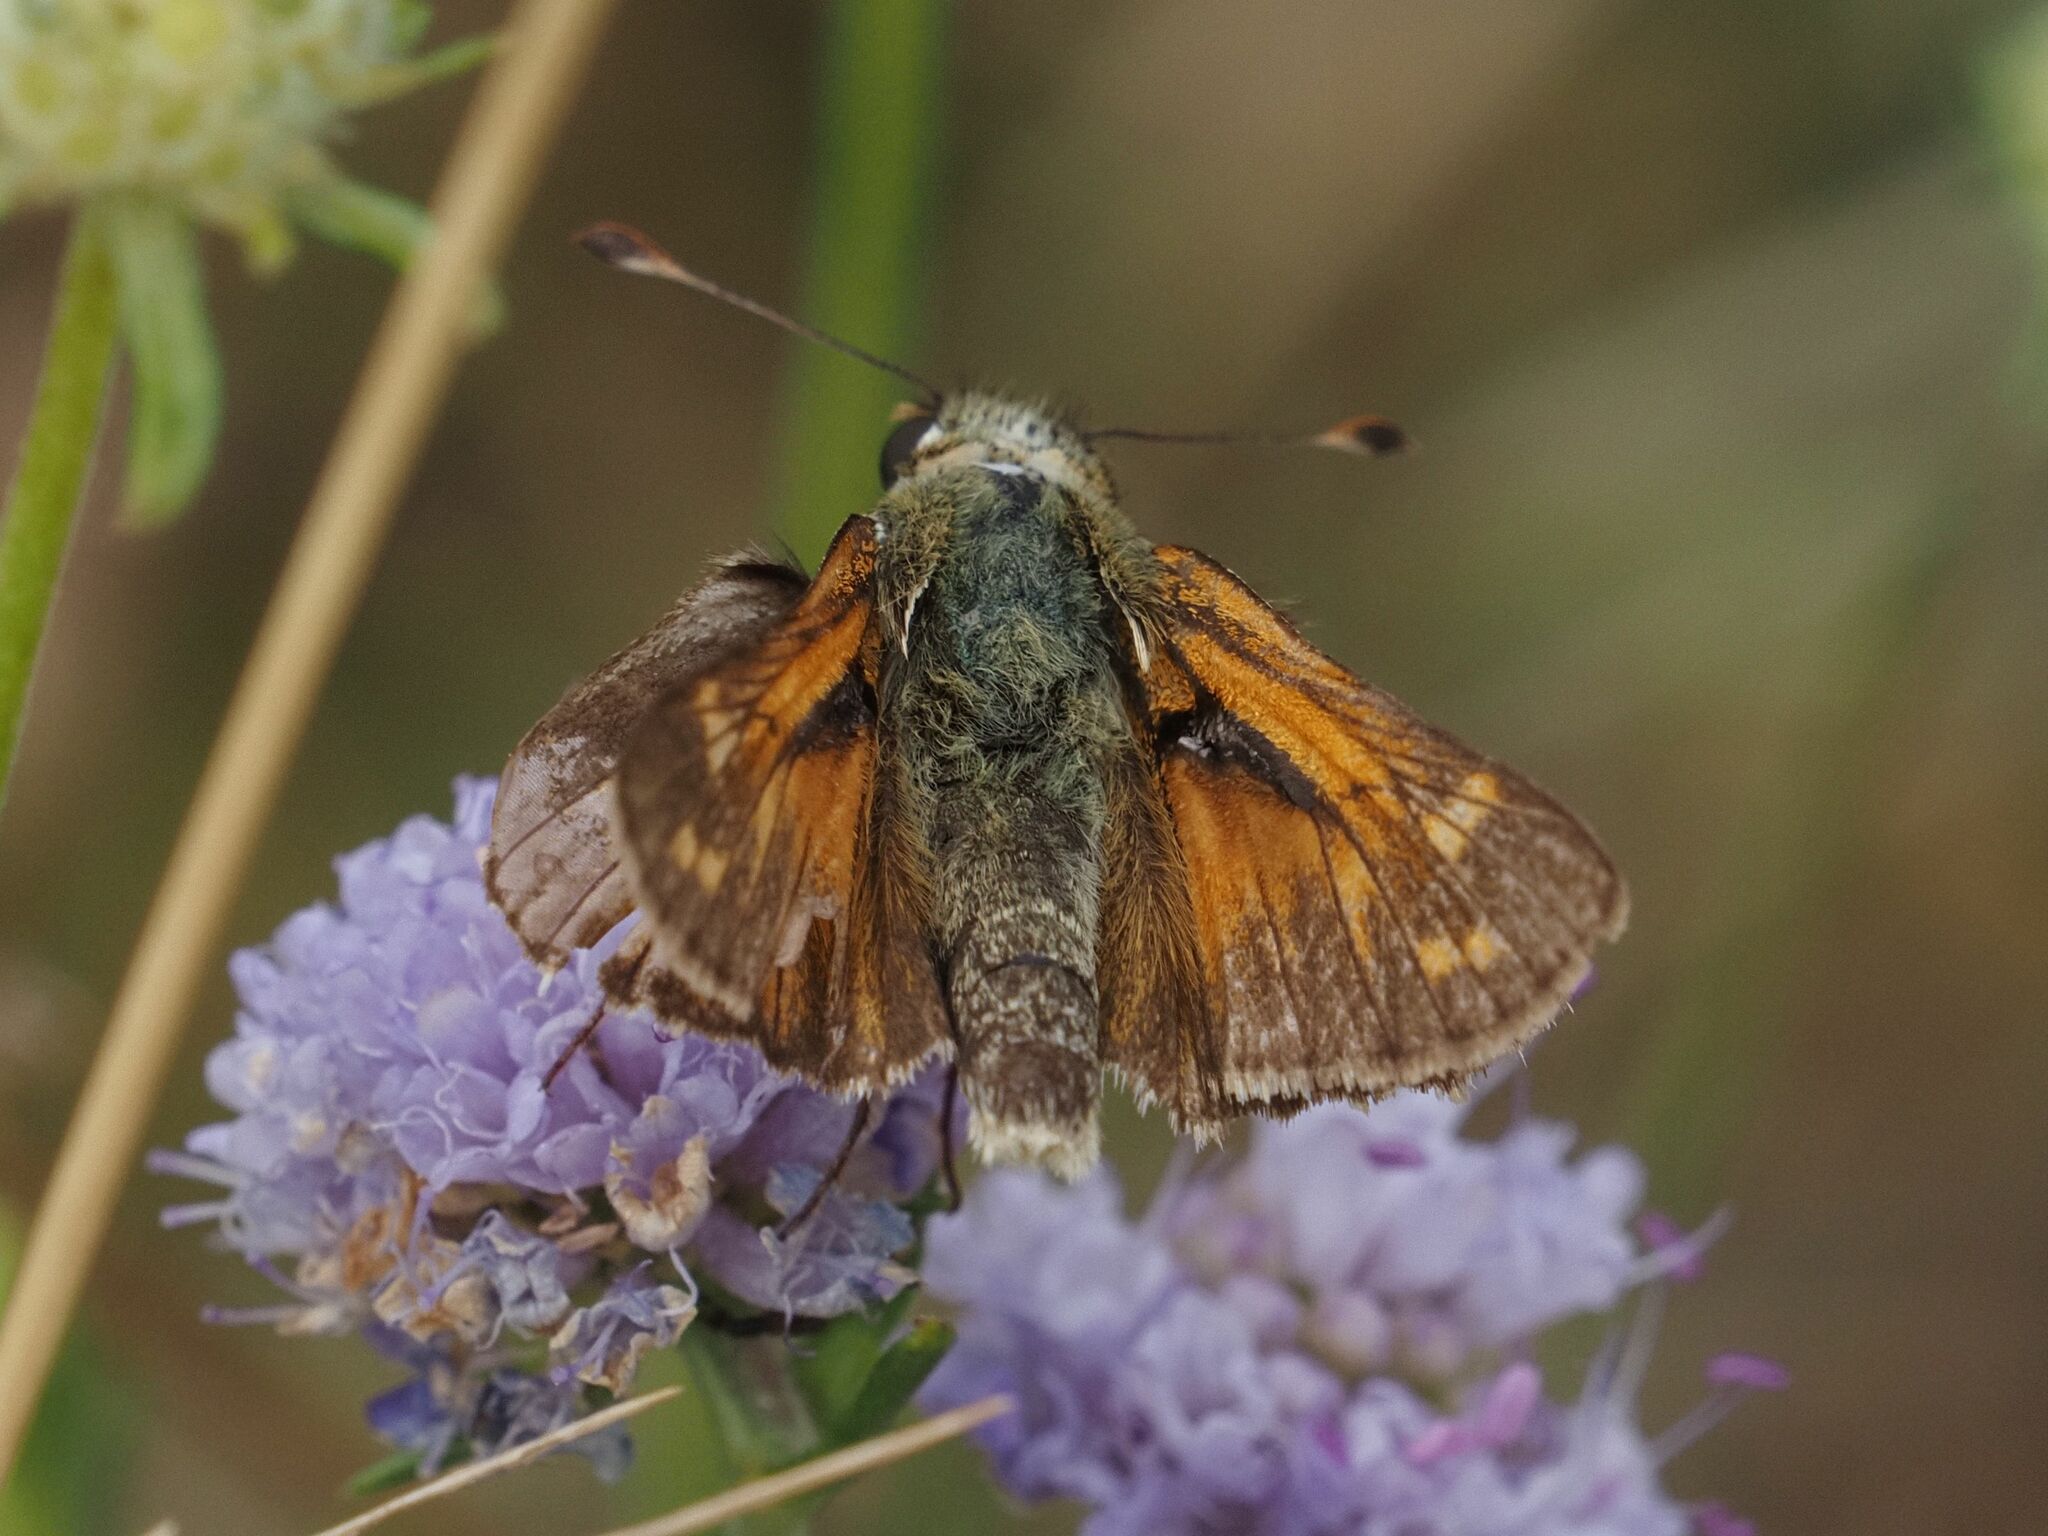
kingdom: Animalia
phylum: Arthropoda
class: Insecta
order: Lepidoptera
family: Hesperiidae
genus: Hesperia
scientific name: Hesperia comma
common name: Common branded skipper
